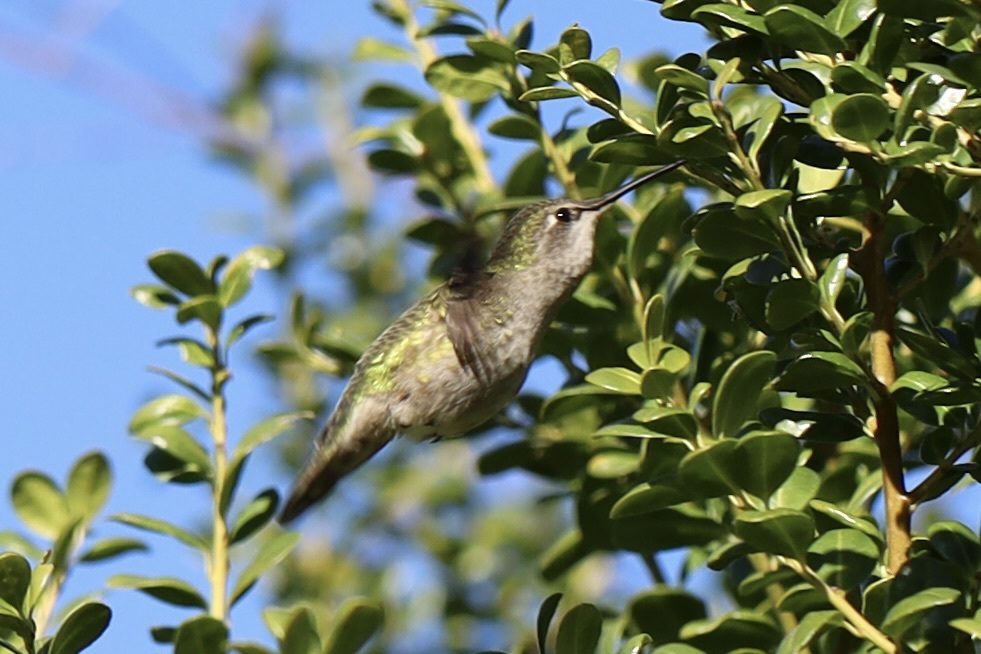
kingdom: Animalia
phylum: Chordata
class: Aves
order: Apodiformes
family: Trochilidae
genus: Calypte
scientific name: Calypte anna
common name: Anna's hummingbird
